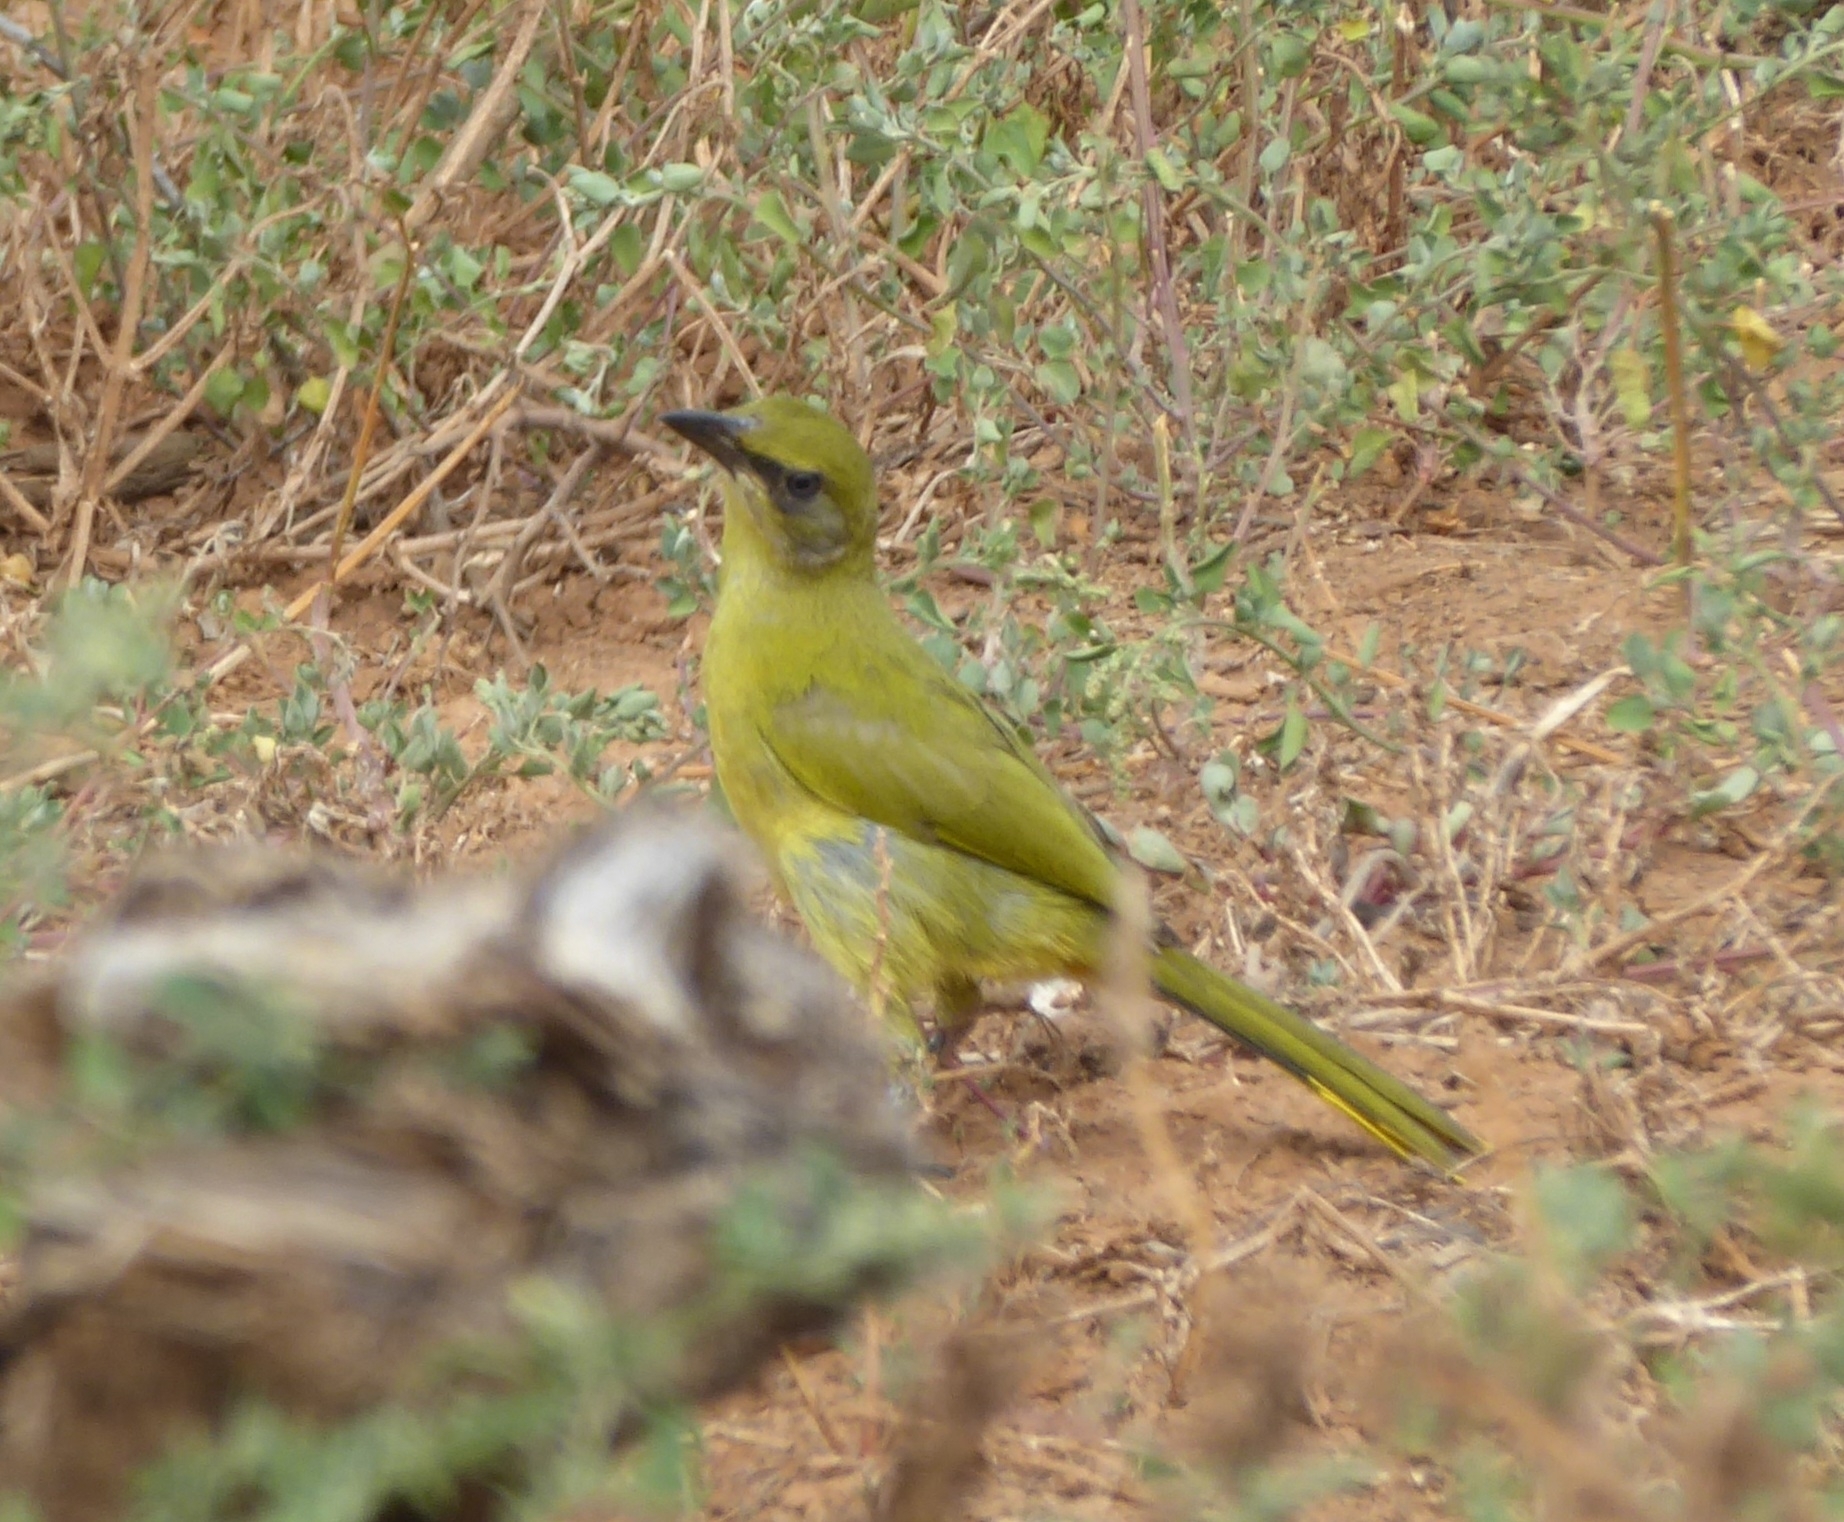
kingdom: Animalia
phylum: Chordata
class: Aves
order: Passeriformes
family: Malaconotidae
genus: Telophorus
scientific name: Telophorus zeylonus
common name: Bokmakierie
